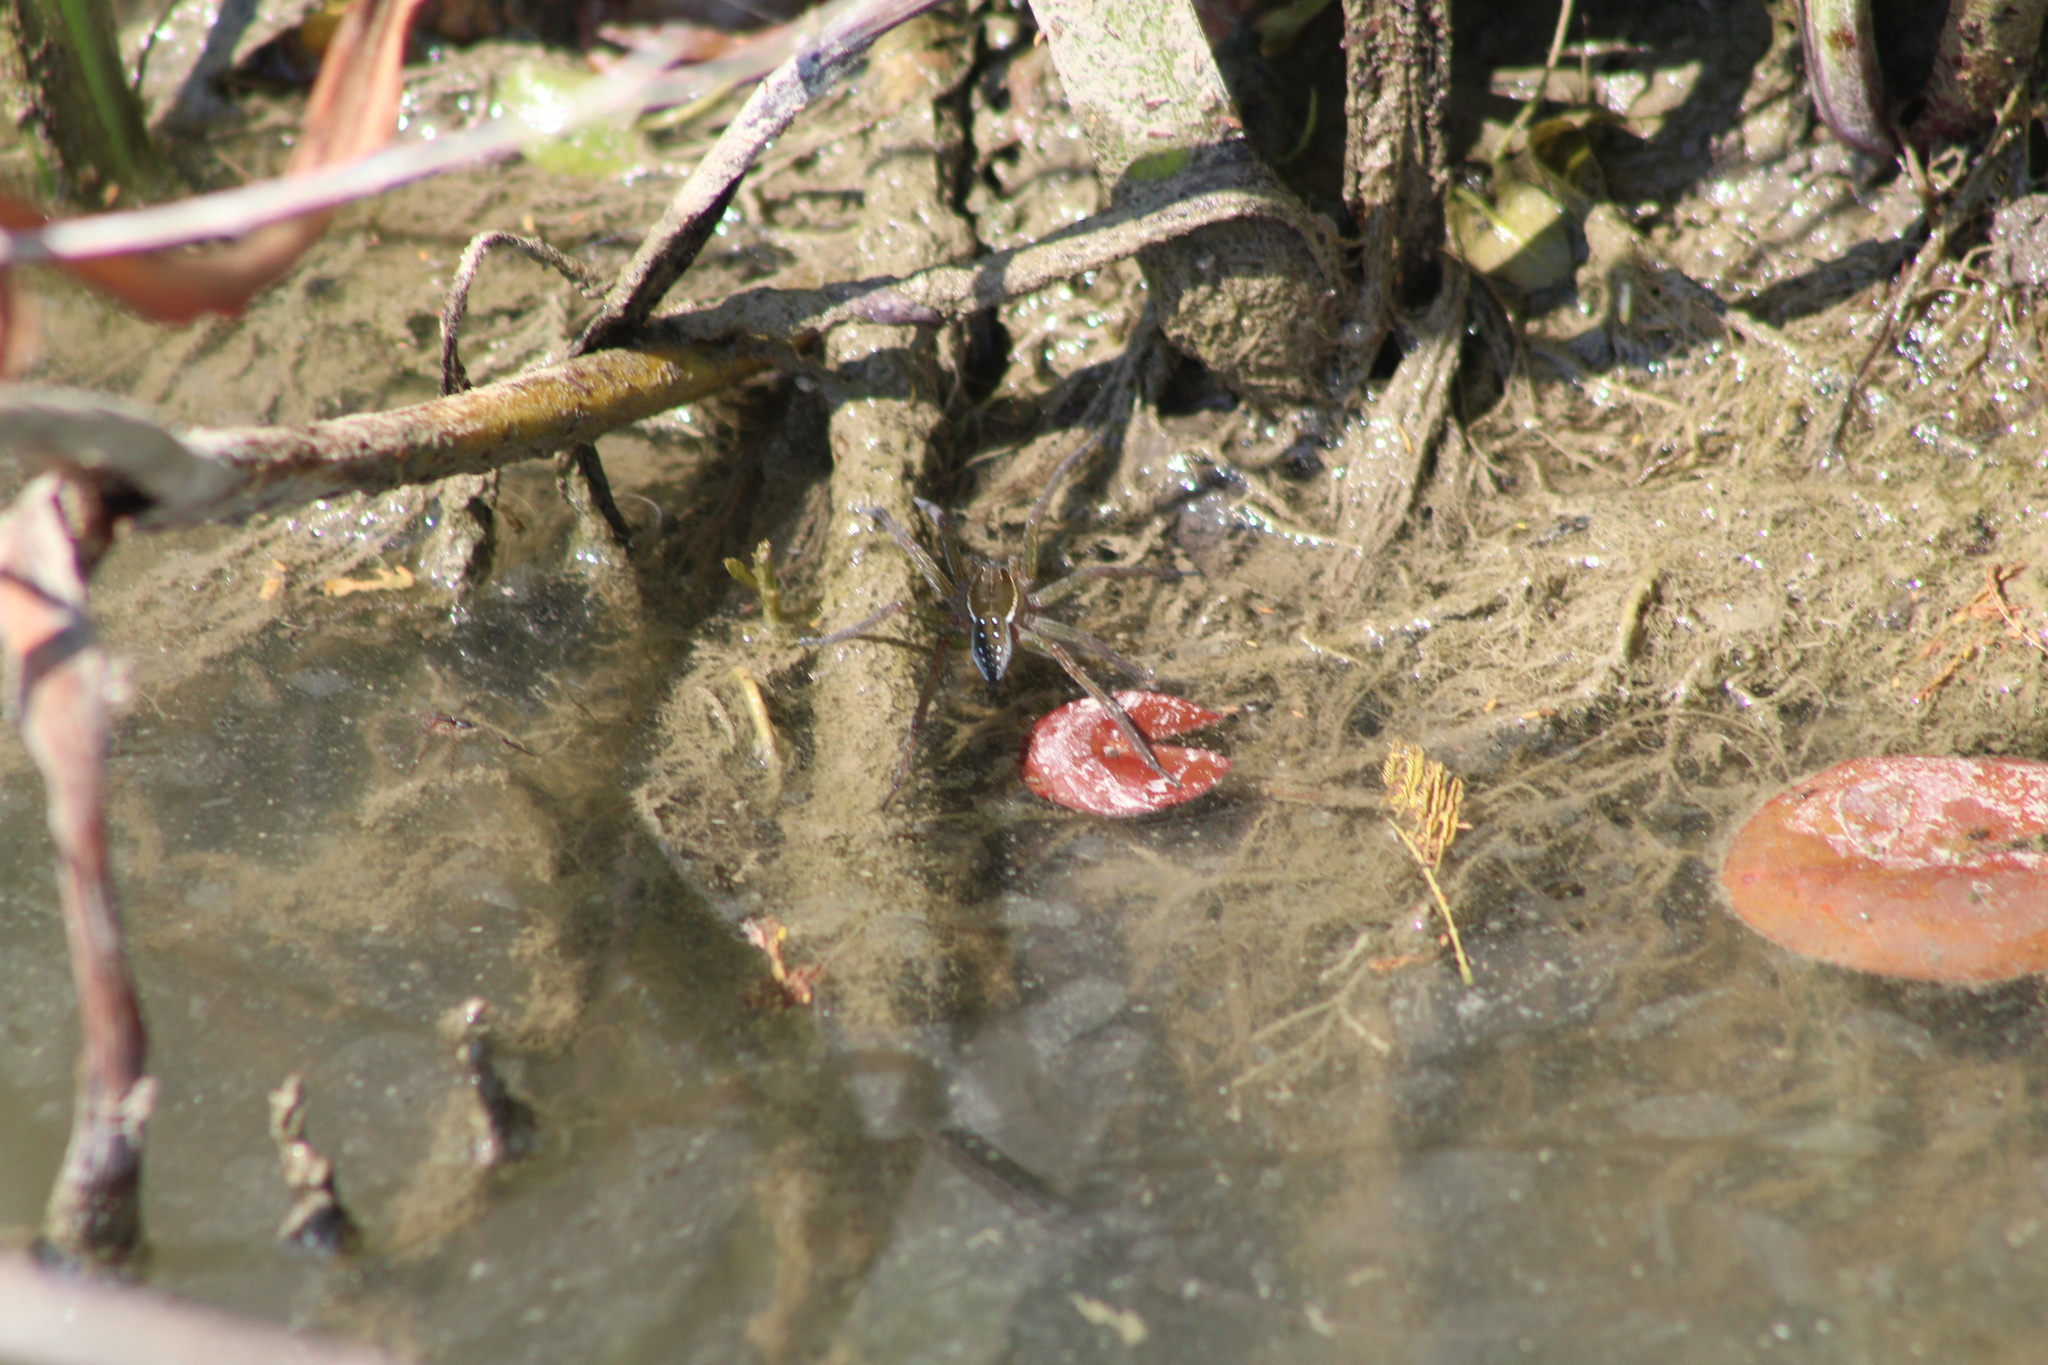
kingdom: Animalia
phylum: Arthropoda
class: Arachnida
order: Araneae
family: Pisauridae
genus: Dolomedes
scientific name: Dolomedes triton
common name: Six-spotted fishing spider
